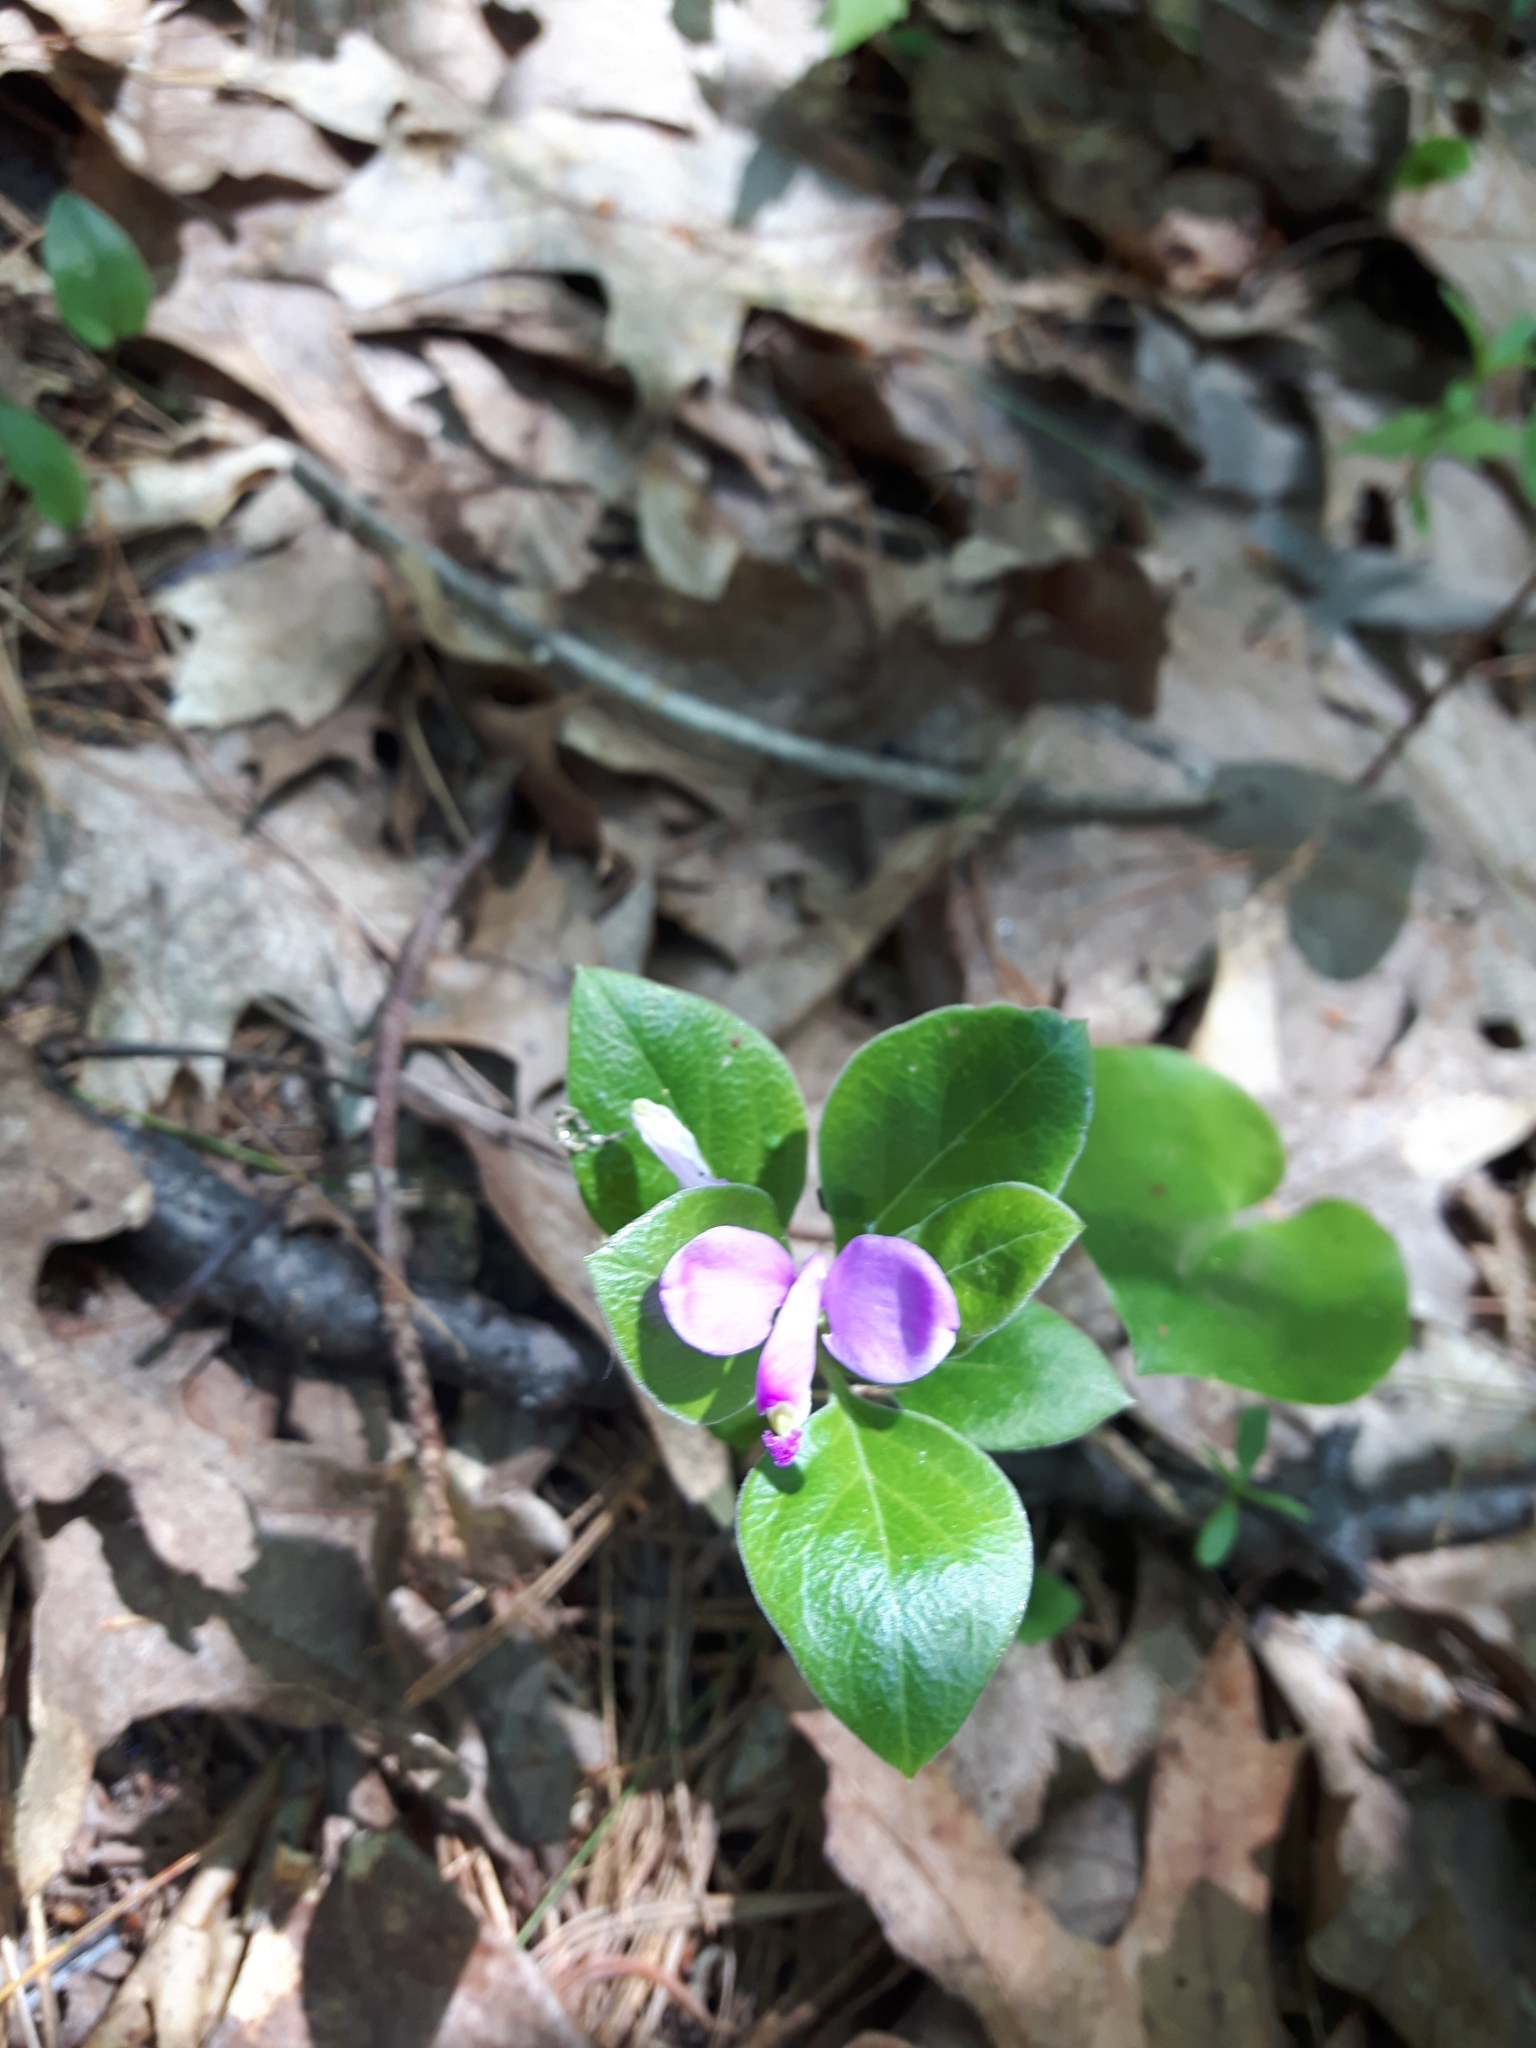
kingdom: Plantae
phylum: Tracheophyta
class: Magnoliopsida
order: Fabales
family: Polygalaceae
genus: Polygaloides
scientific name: Polygaloides paucifolia
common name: Bird-on-the-wing
